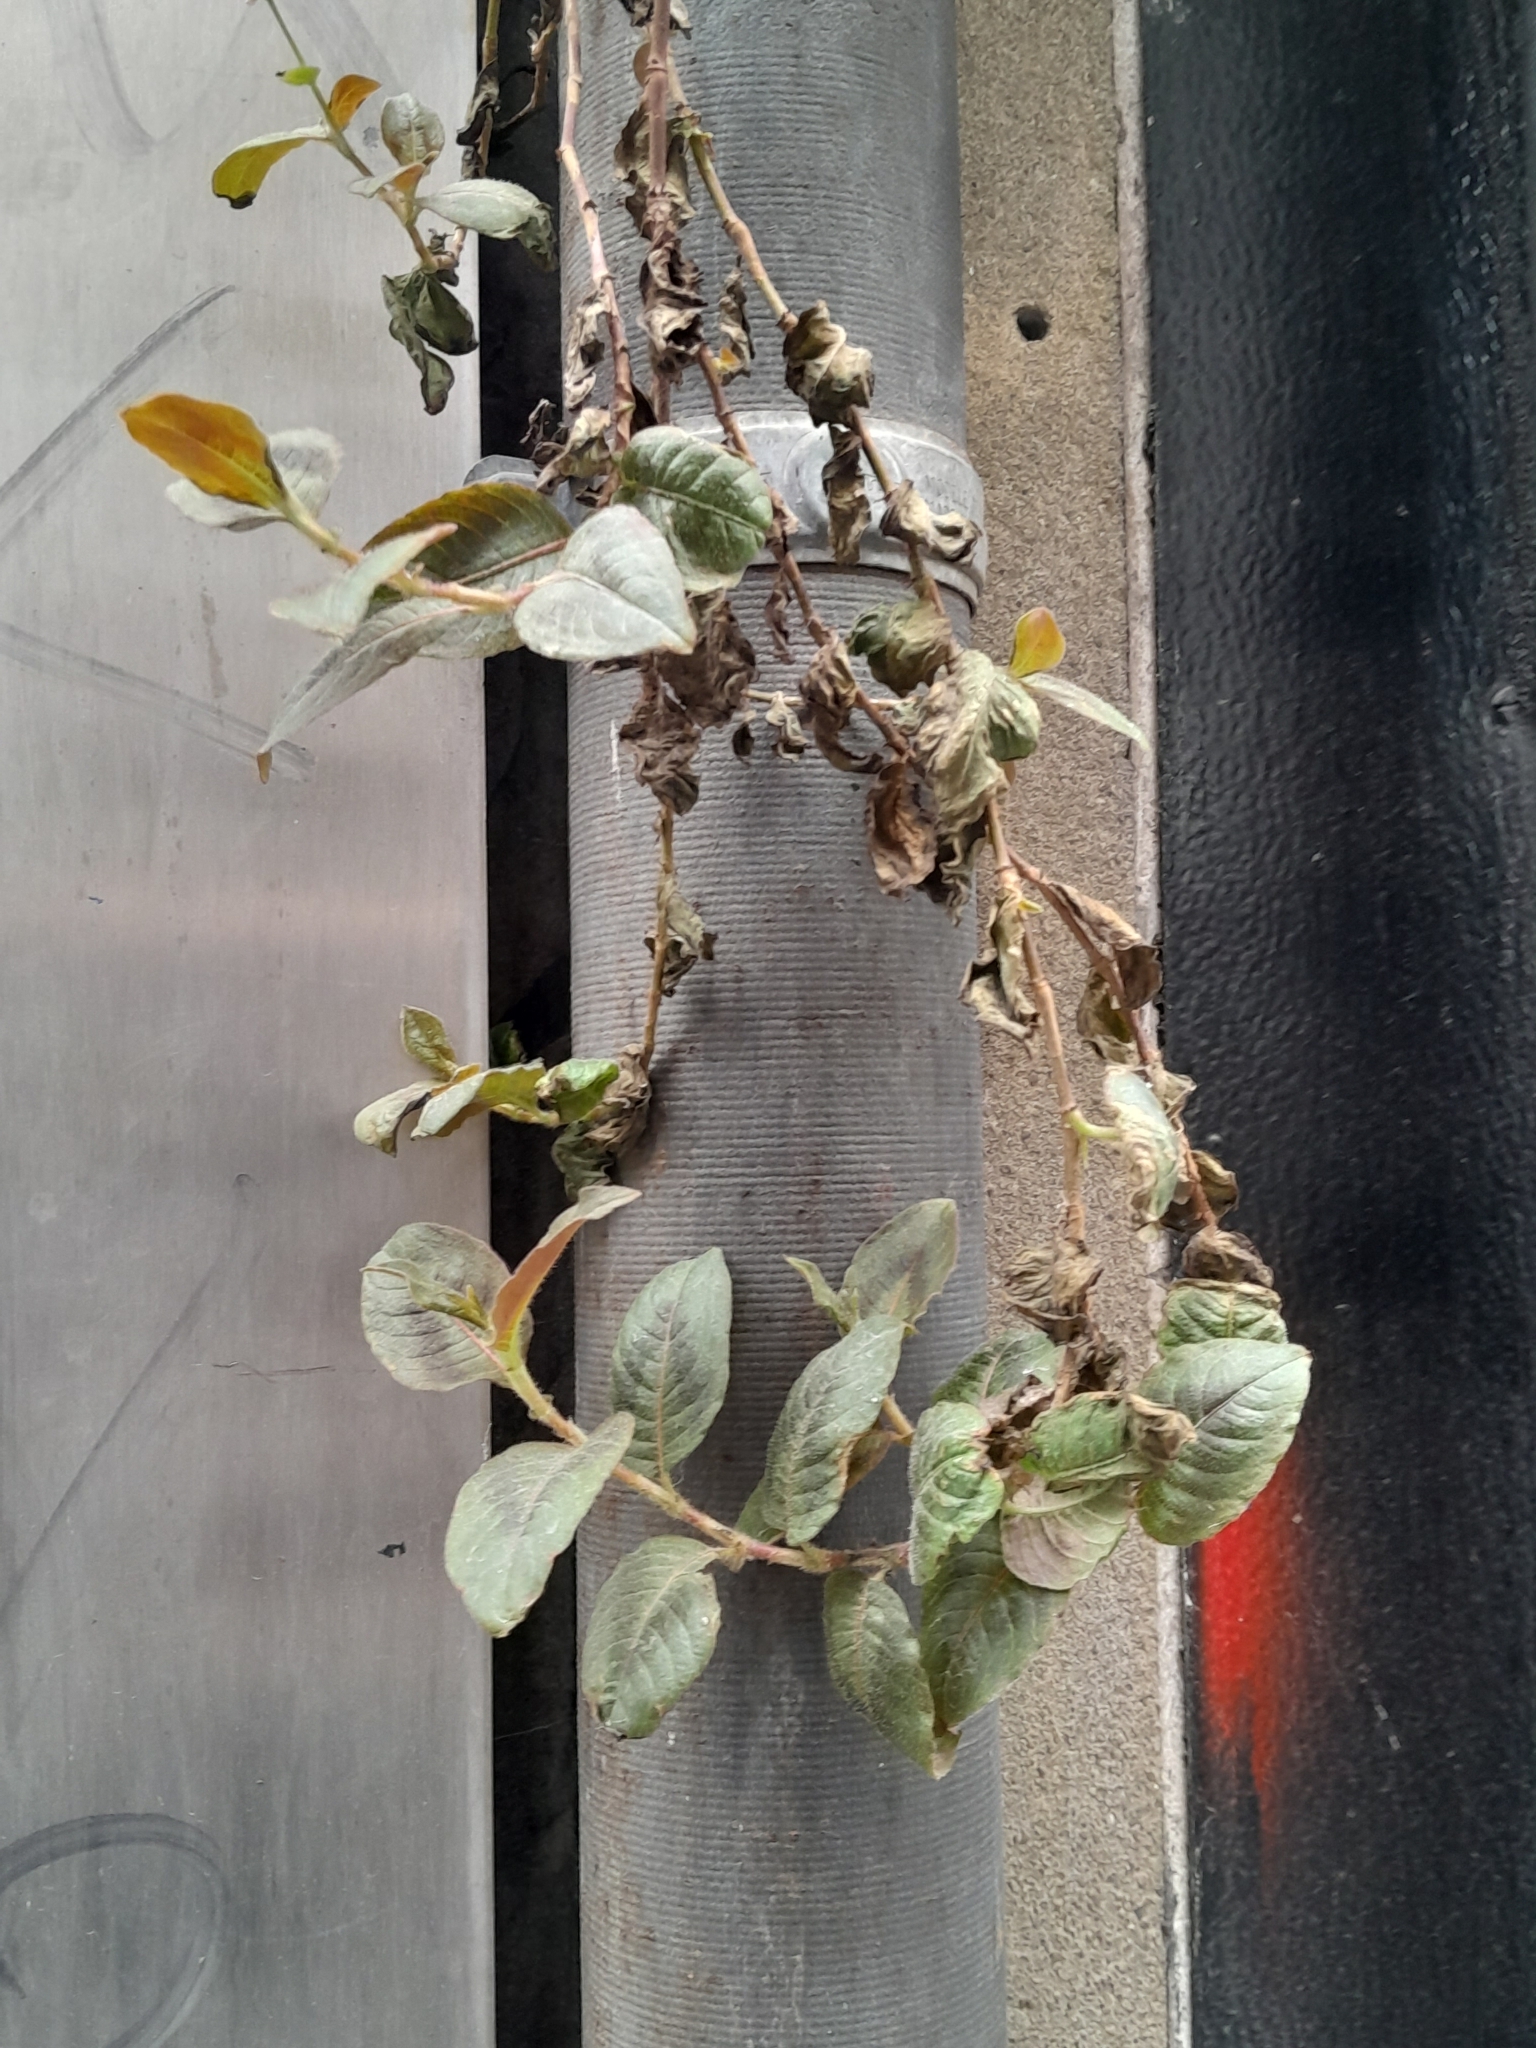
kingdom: Plantae
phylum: Tracheophyta
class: Magnoliopsida
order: Caryophyllales
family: Polygonaceae
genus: Persicaria
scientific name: Persicaria capitata
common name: Pinkhead smartweed
